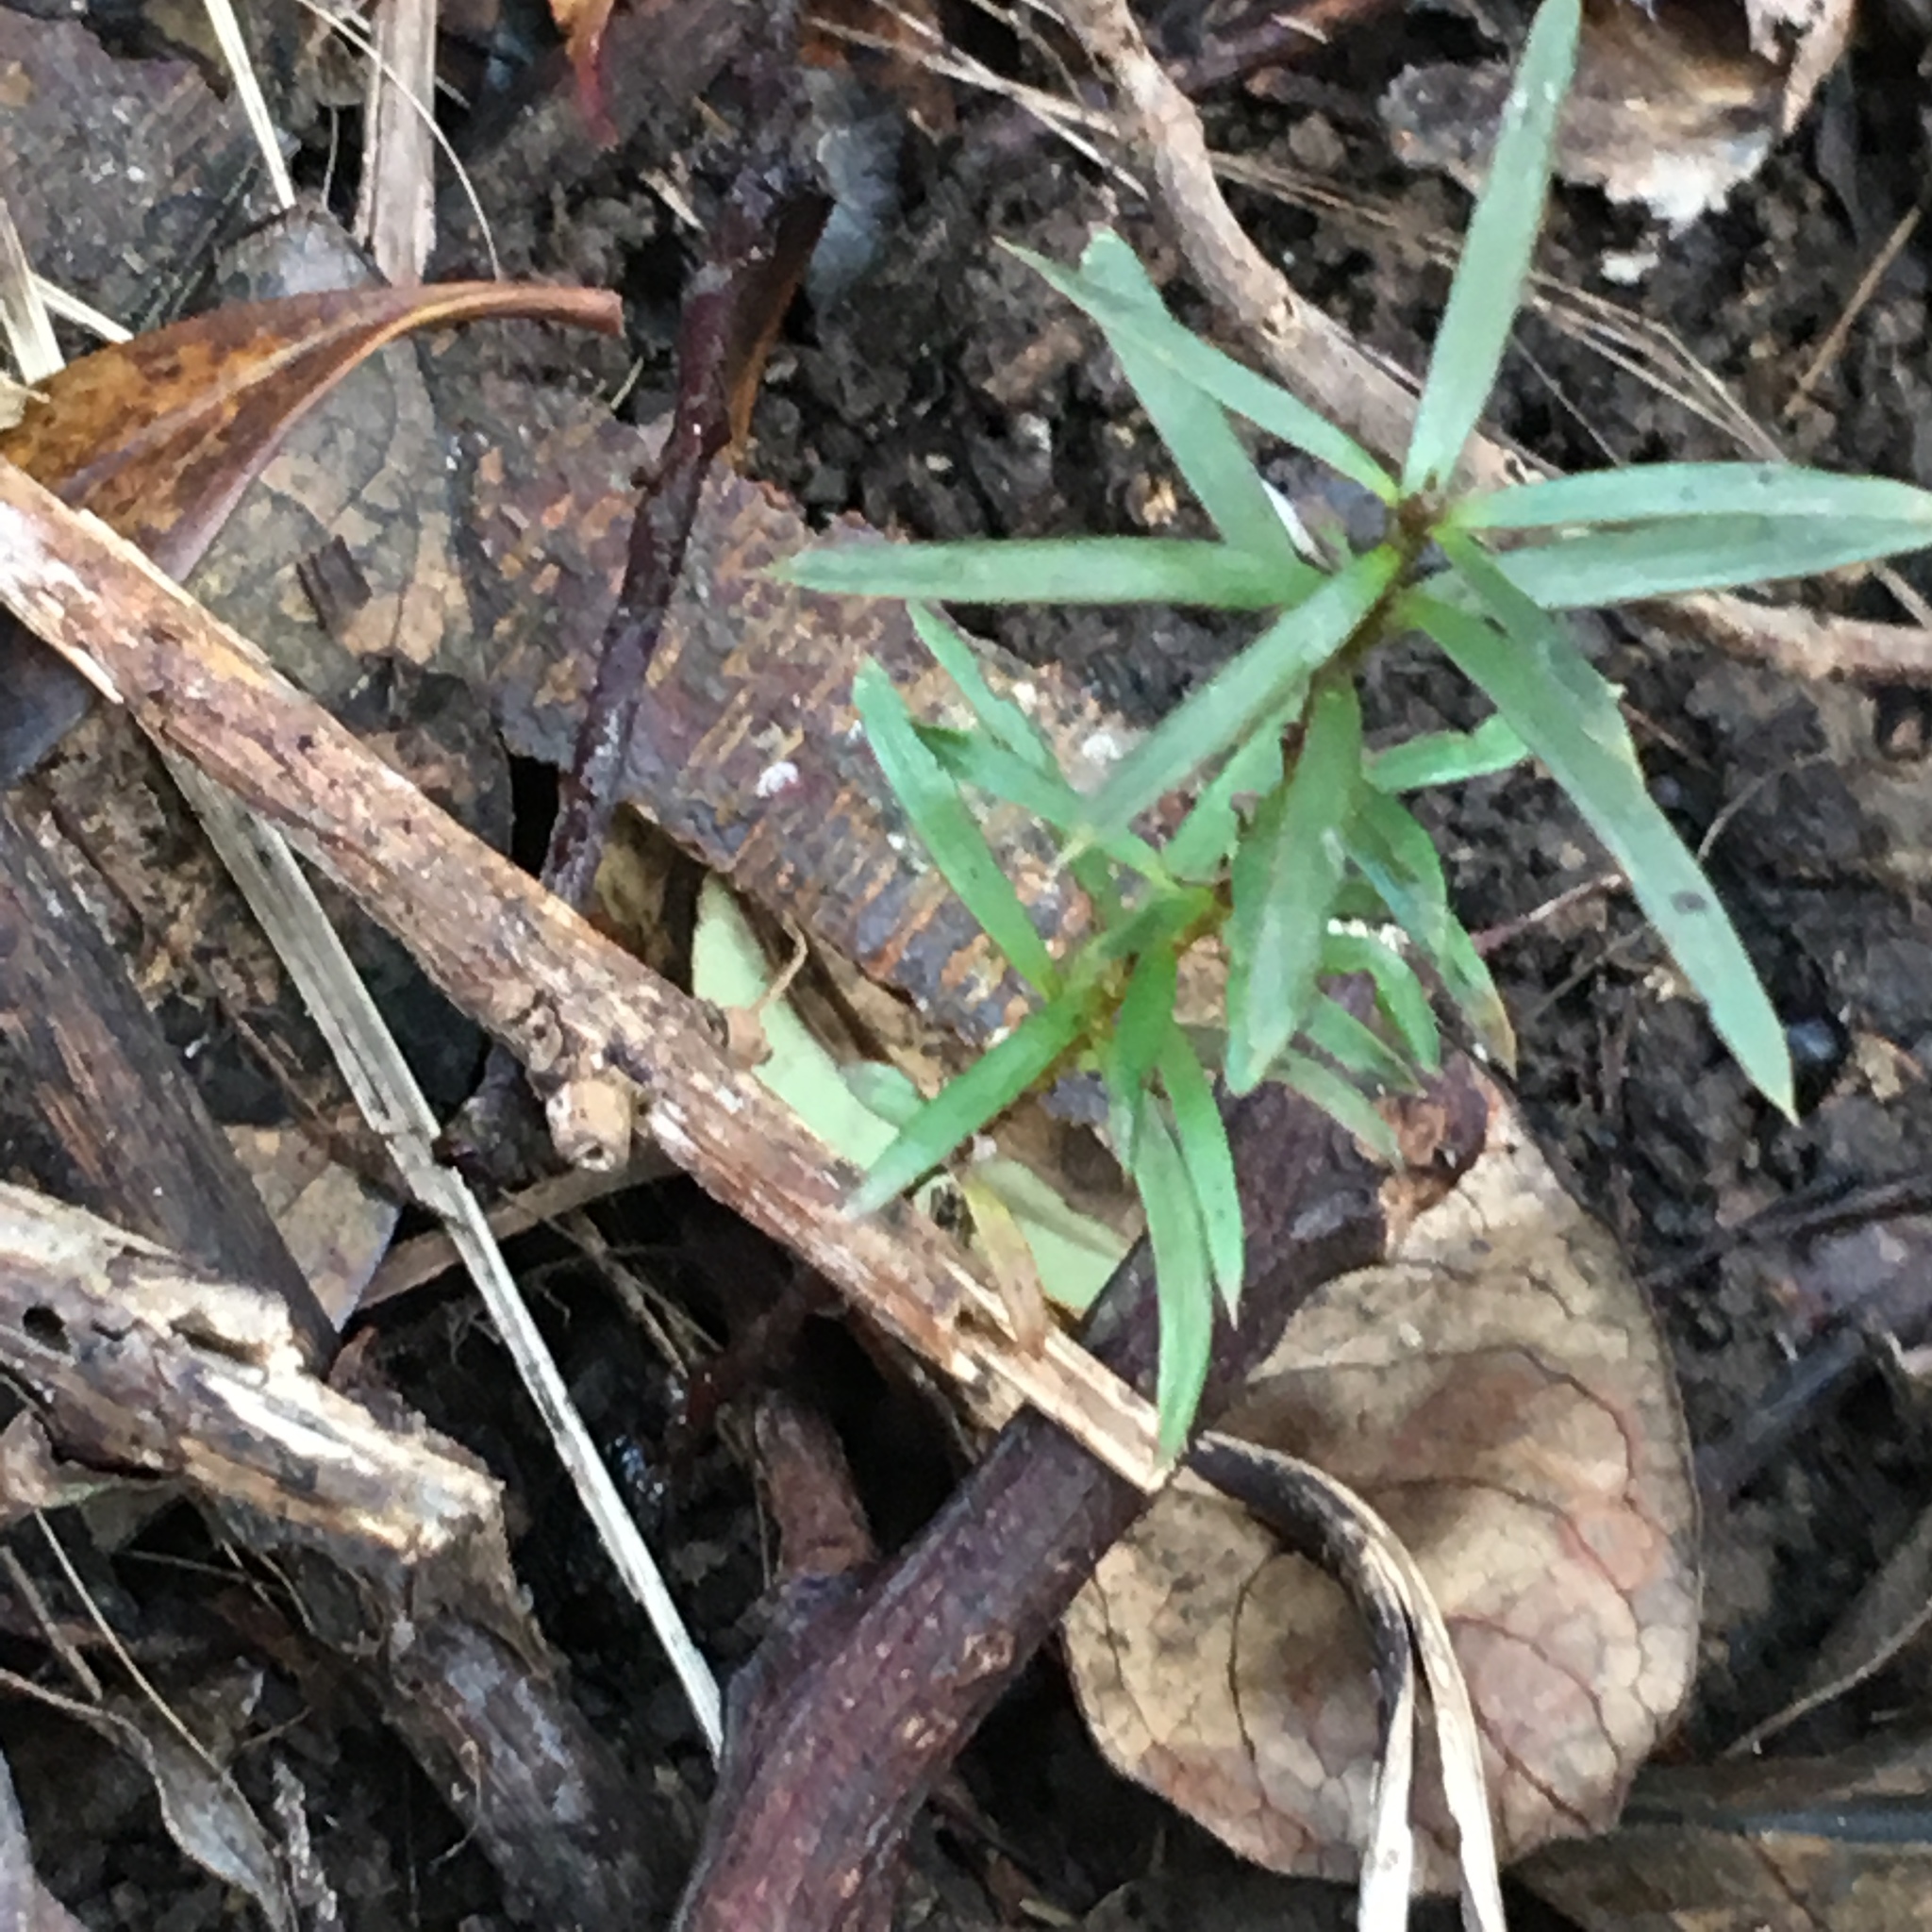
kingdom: Plantae
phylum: Tracheophyta
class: Pinopsida
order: Pinales
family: Podocarpaceae
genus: Podocarpus
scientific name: Podocarpus totara
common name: Totara
